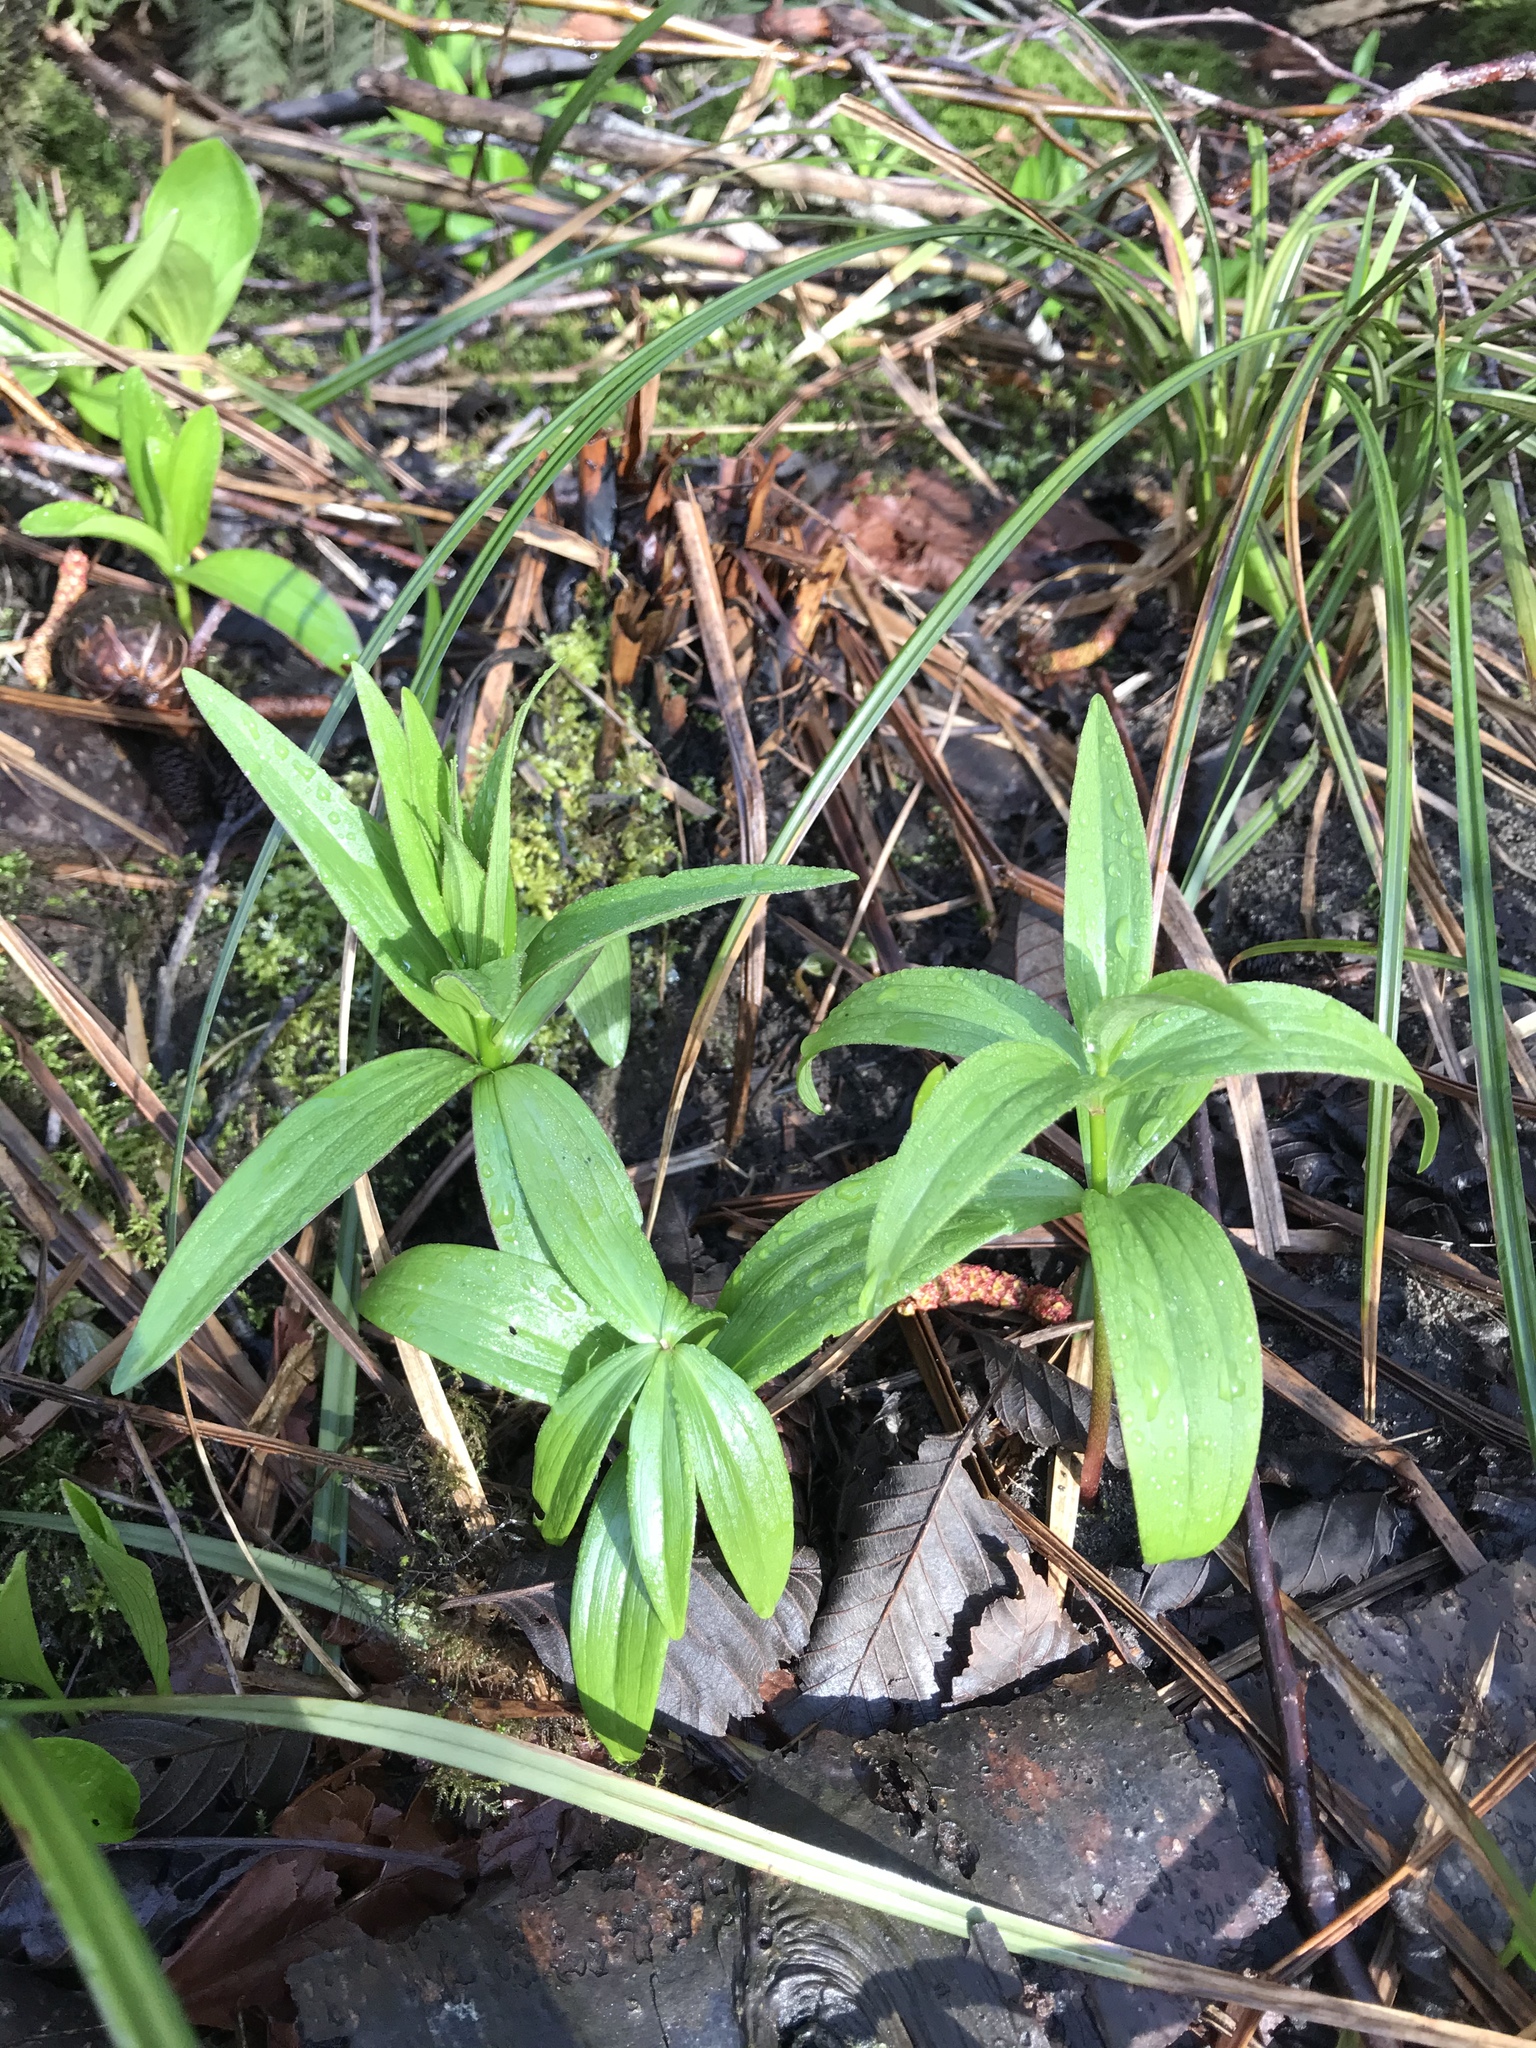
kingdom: Plantae
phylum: Tracheophyta
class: Liliopsida
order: Liliales
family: Liliaceae
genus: Fritillaria
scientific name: Fritillaria camschatcensis
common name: Kamchatka fritillary
